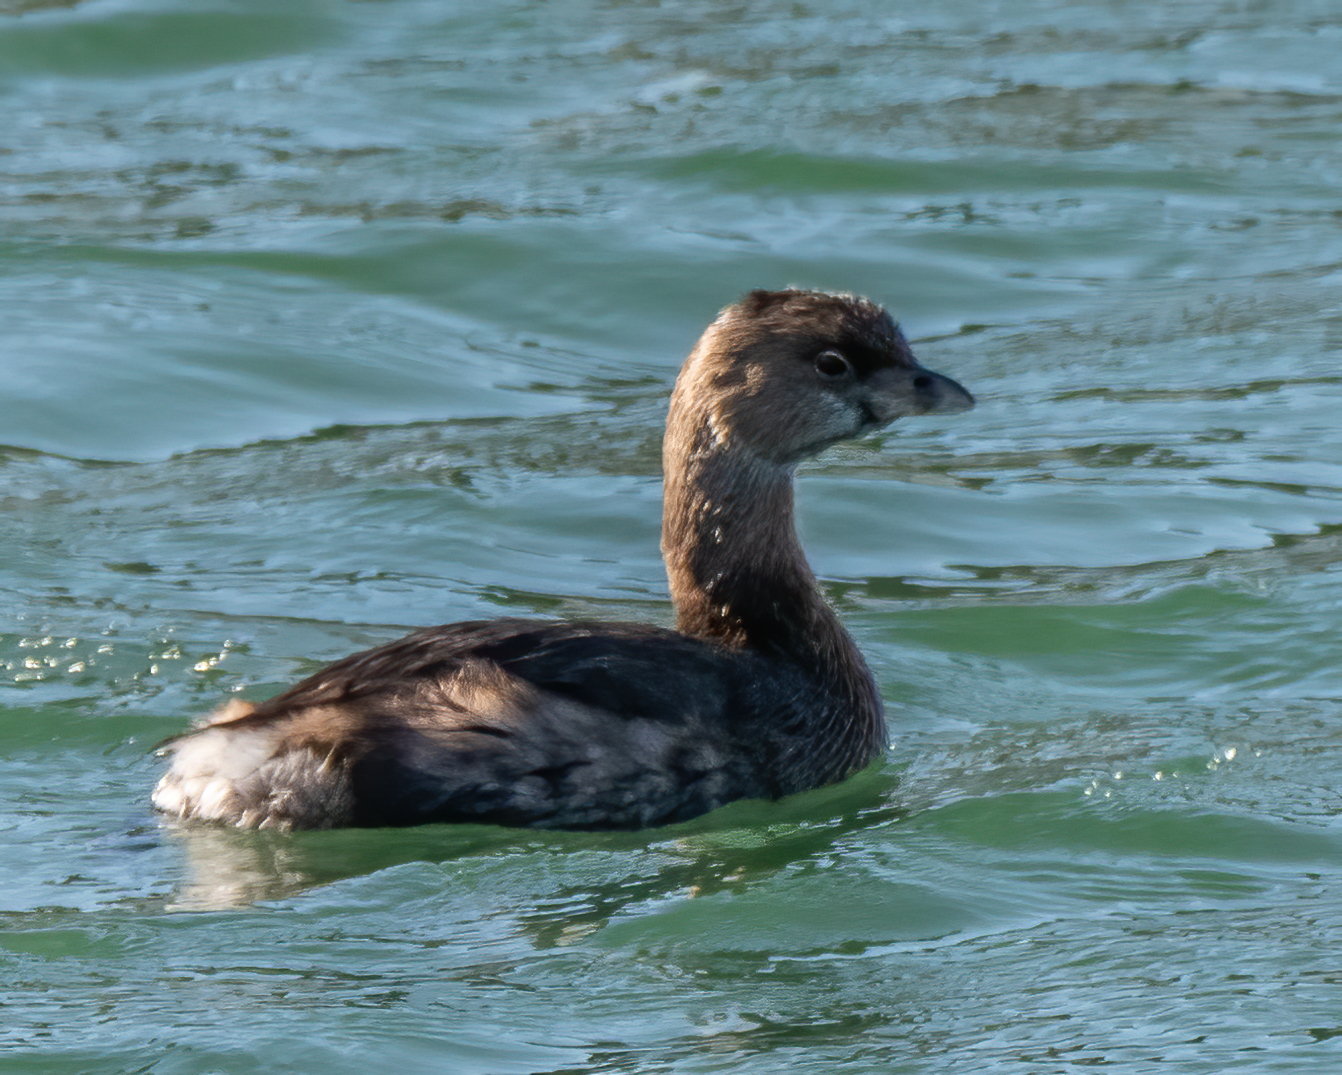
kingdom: Animalia
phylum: Chordata
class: Aves
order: Podicipediformes
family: Podicipedidae
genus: Podilymbus
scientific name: Podilymbus podiceps
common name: Pied-billed grebe
